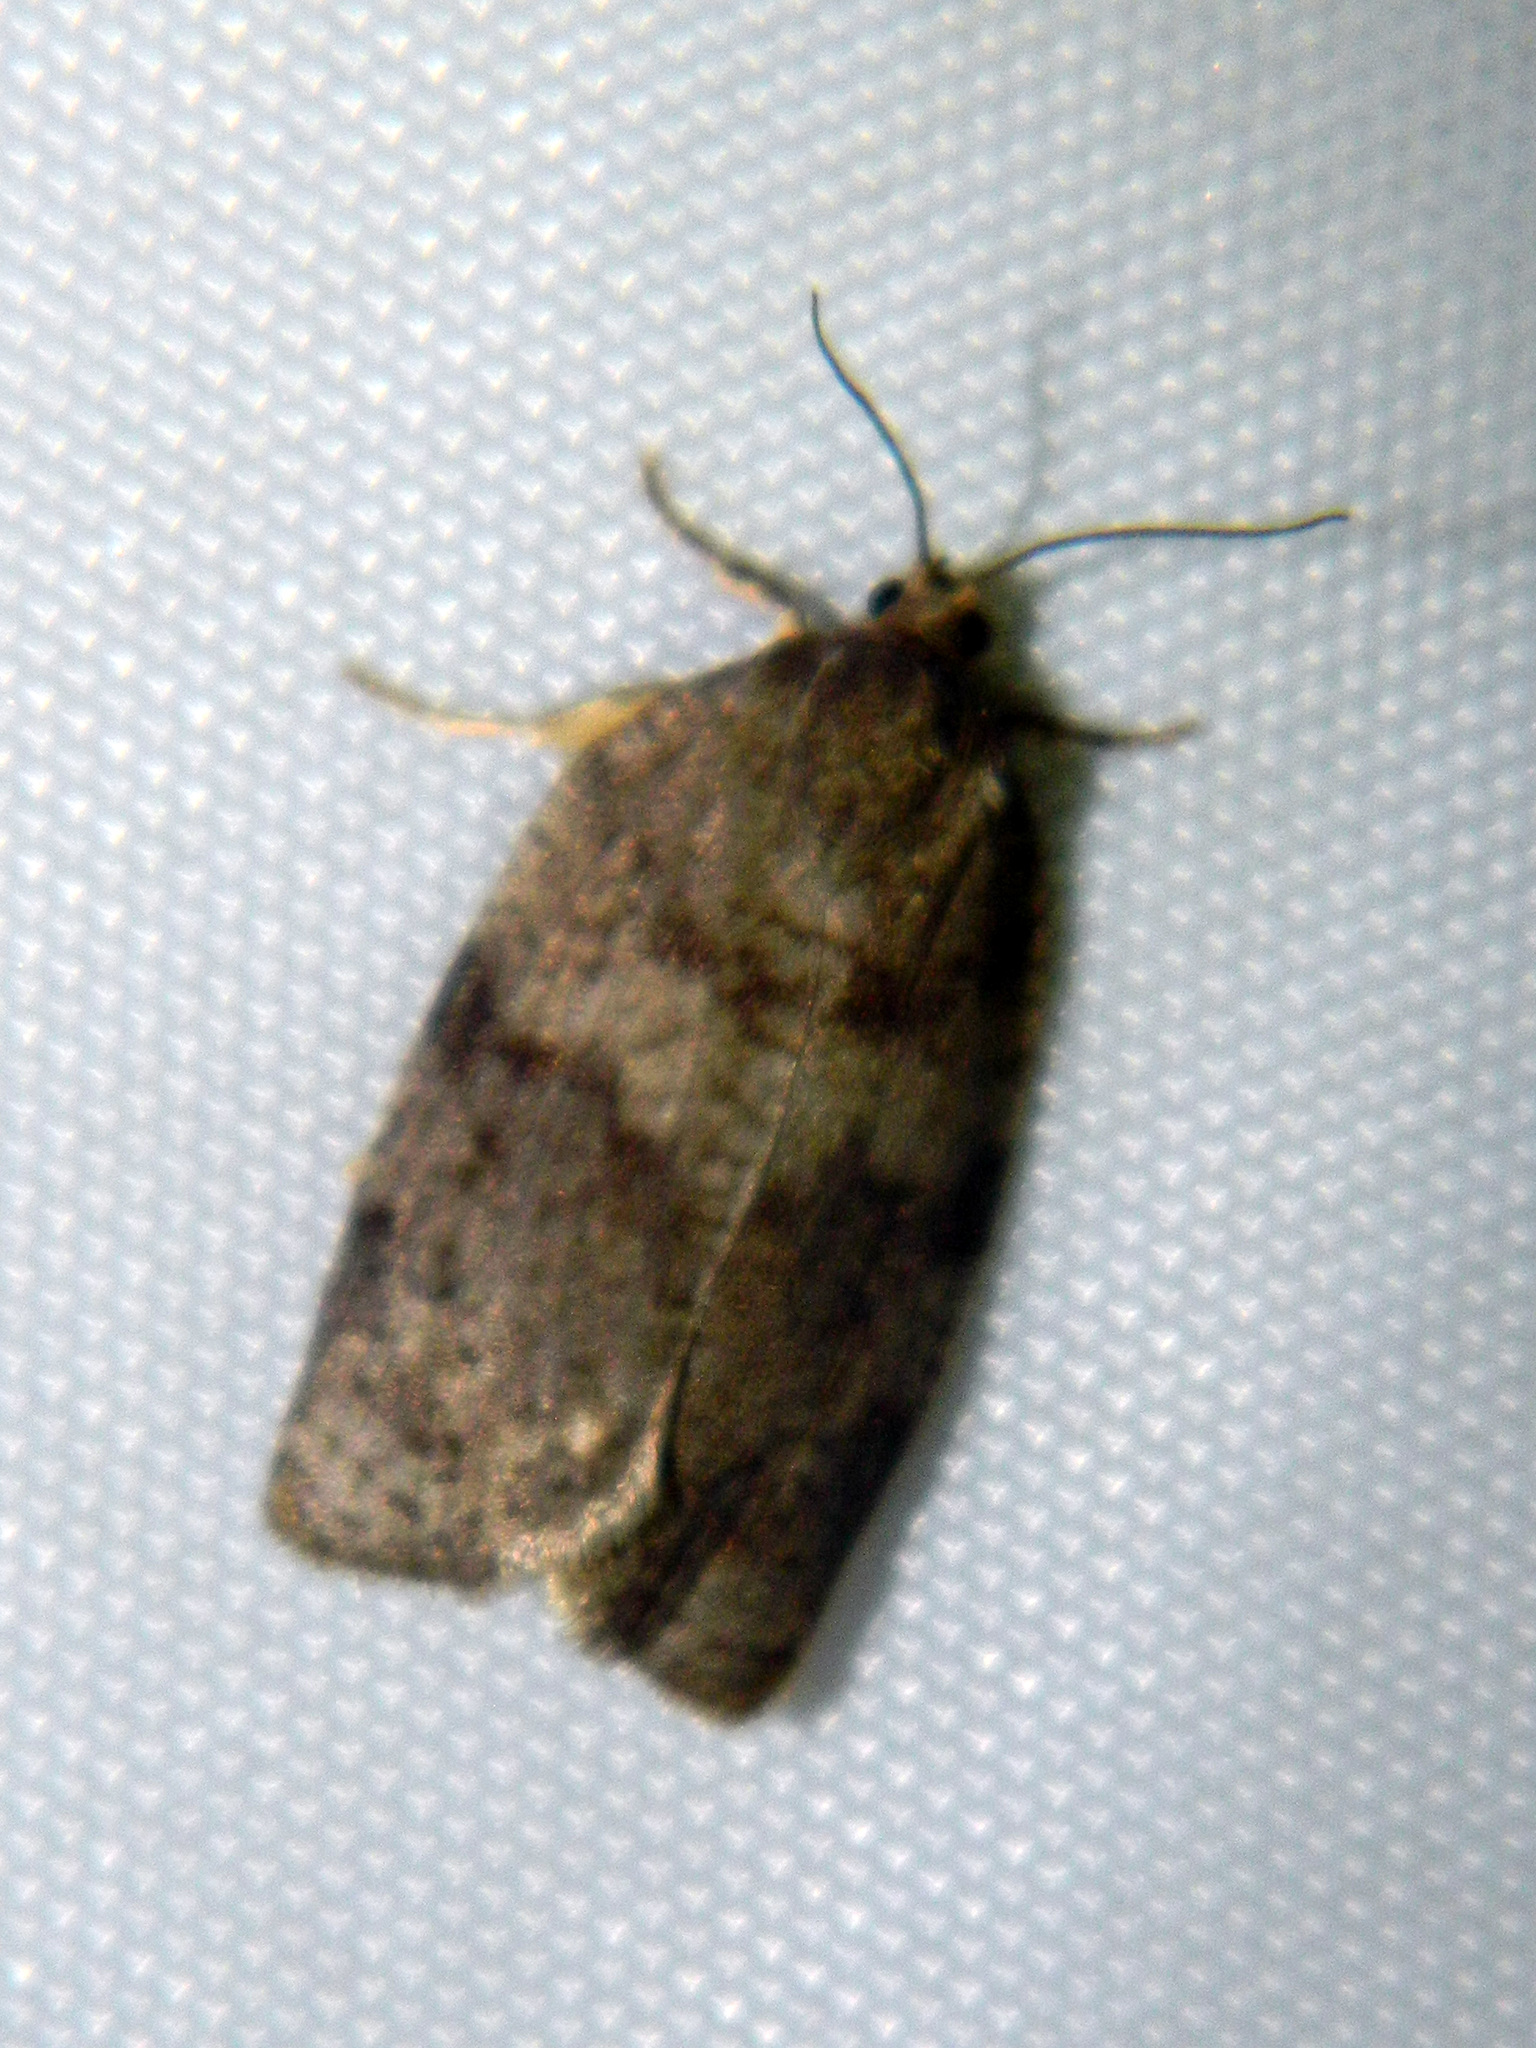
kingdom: Animalia
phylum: Arthropoda
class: Insecta
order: Lepidoptera
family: Tortricidae
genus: Choristoneura
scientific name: Choristoneura conflictana
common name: Large aspen tortrix
